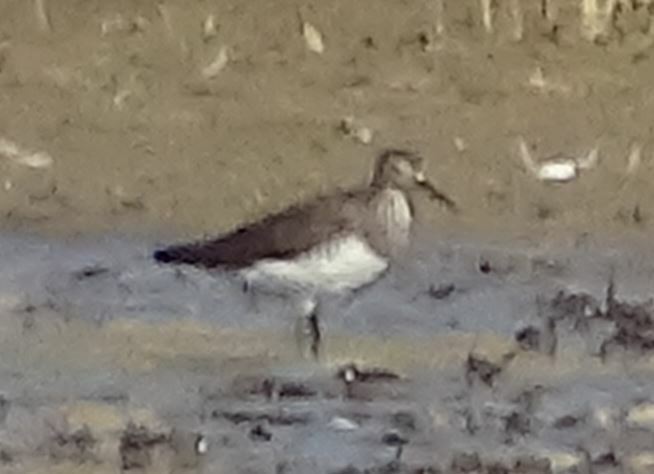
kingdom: Animalia
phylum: Chordata
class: Aves
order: Charadriiformes
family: Scolopacidae
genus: Tringa
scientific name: Tringa ochropus
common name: Green sandpiper
